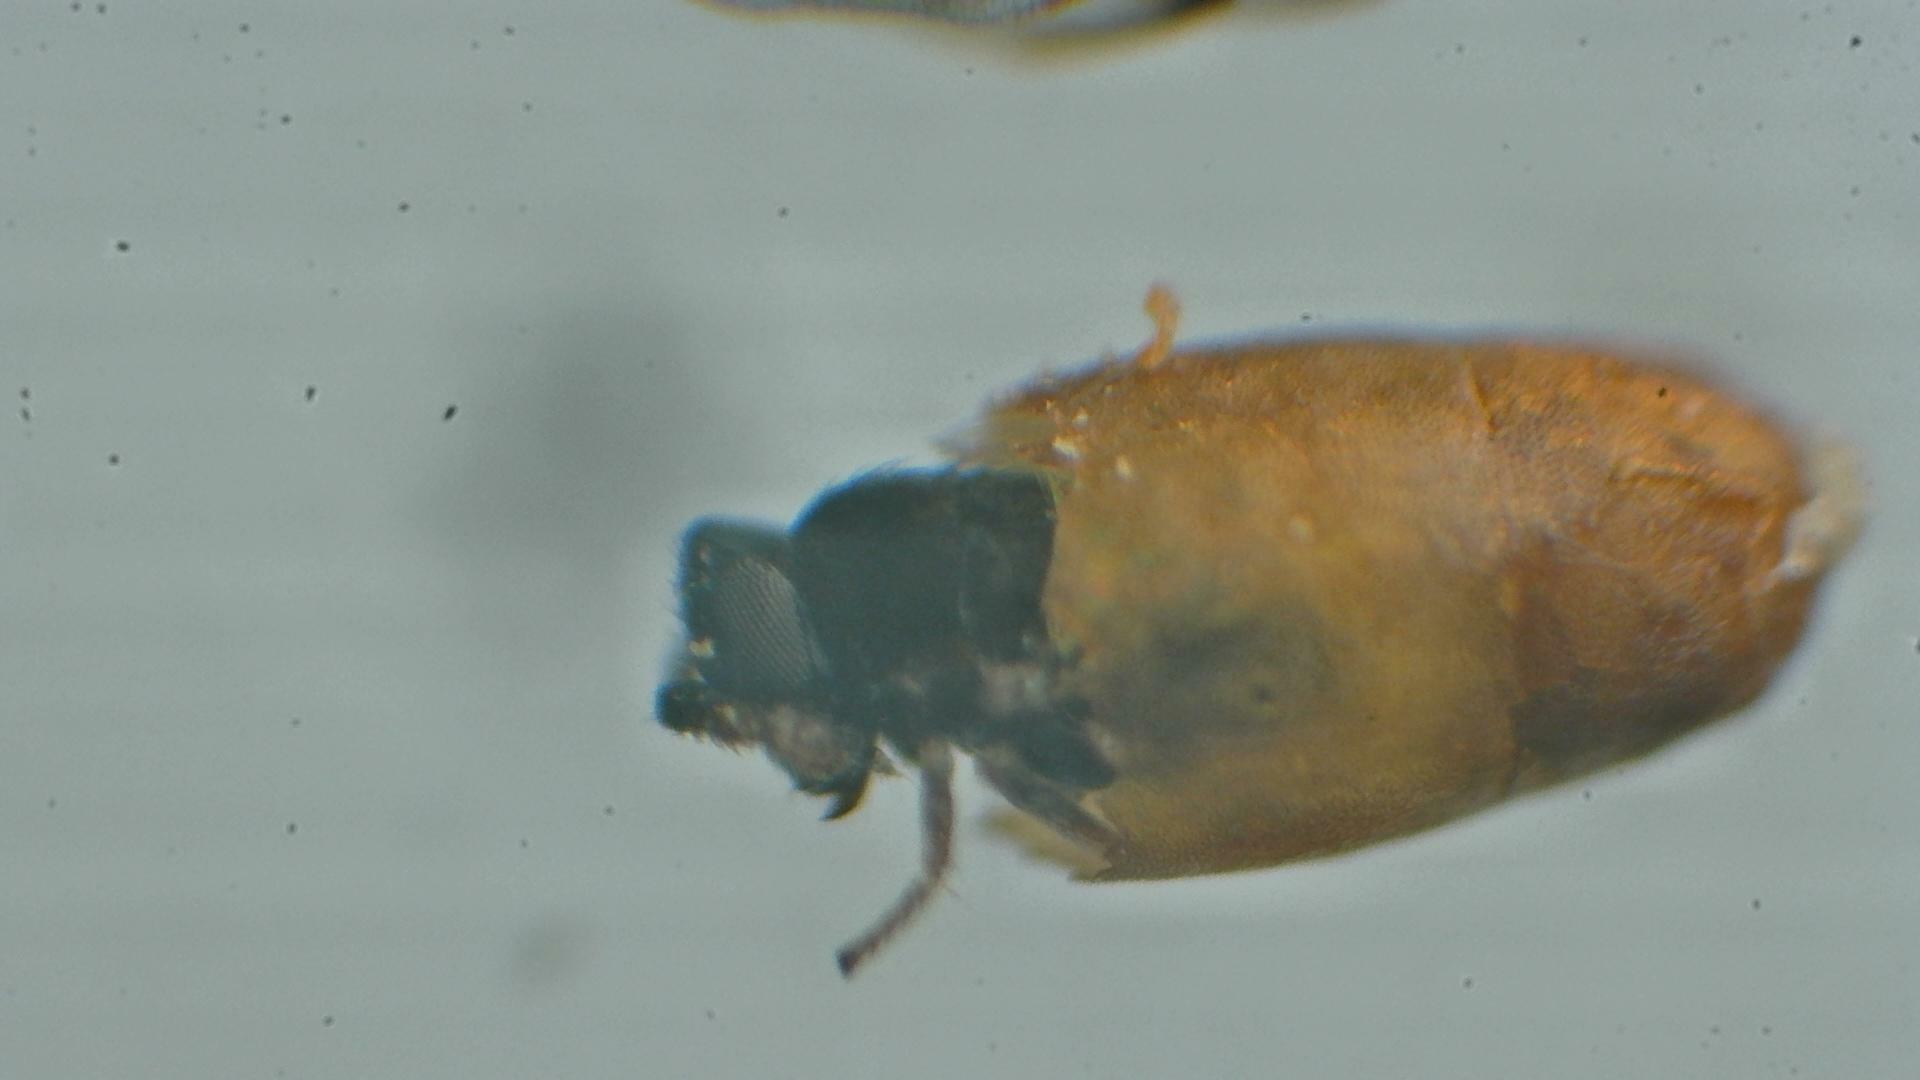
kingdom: Animalia
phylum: Arthropoda
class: Insecta
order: Hymenoptera
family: Encyrtidae
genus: Ageniaspis
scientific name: Ageniaspis citricola
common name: Encyrtid wasp
